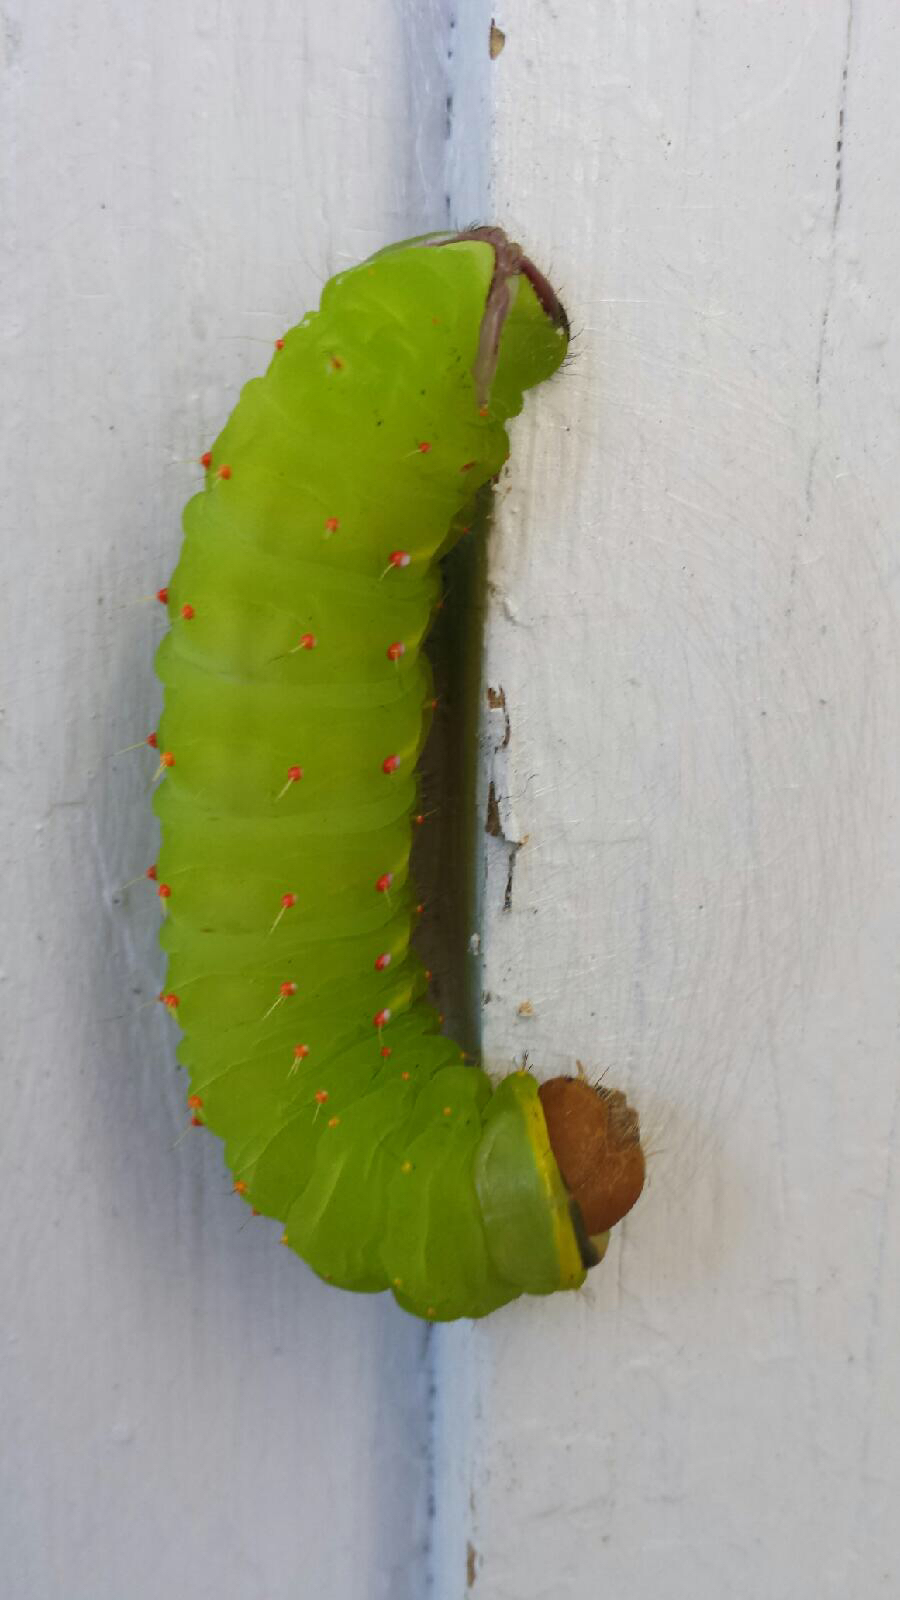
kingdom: Animalia
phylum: Arthropoda
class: Insecta
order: Lepidoptera
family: Saturniidae
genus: Antheraea
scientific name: Antheraea polyphemus
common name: Polyphemus moth
